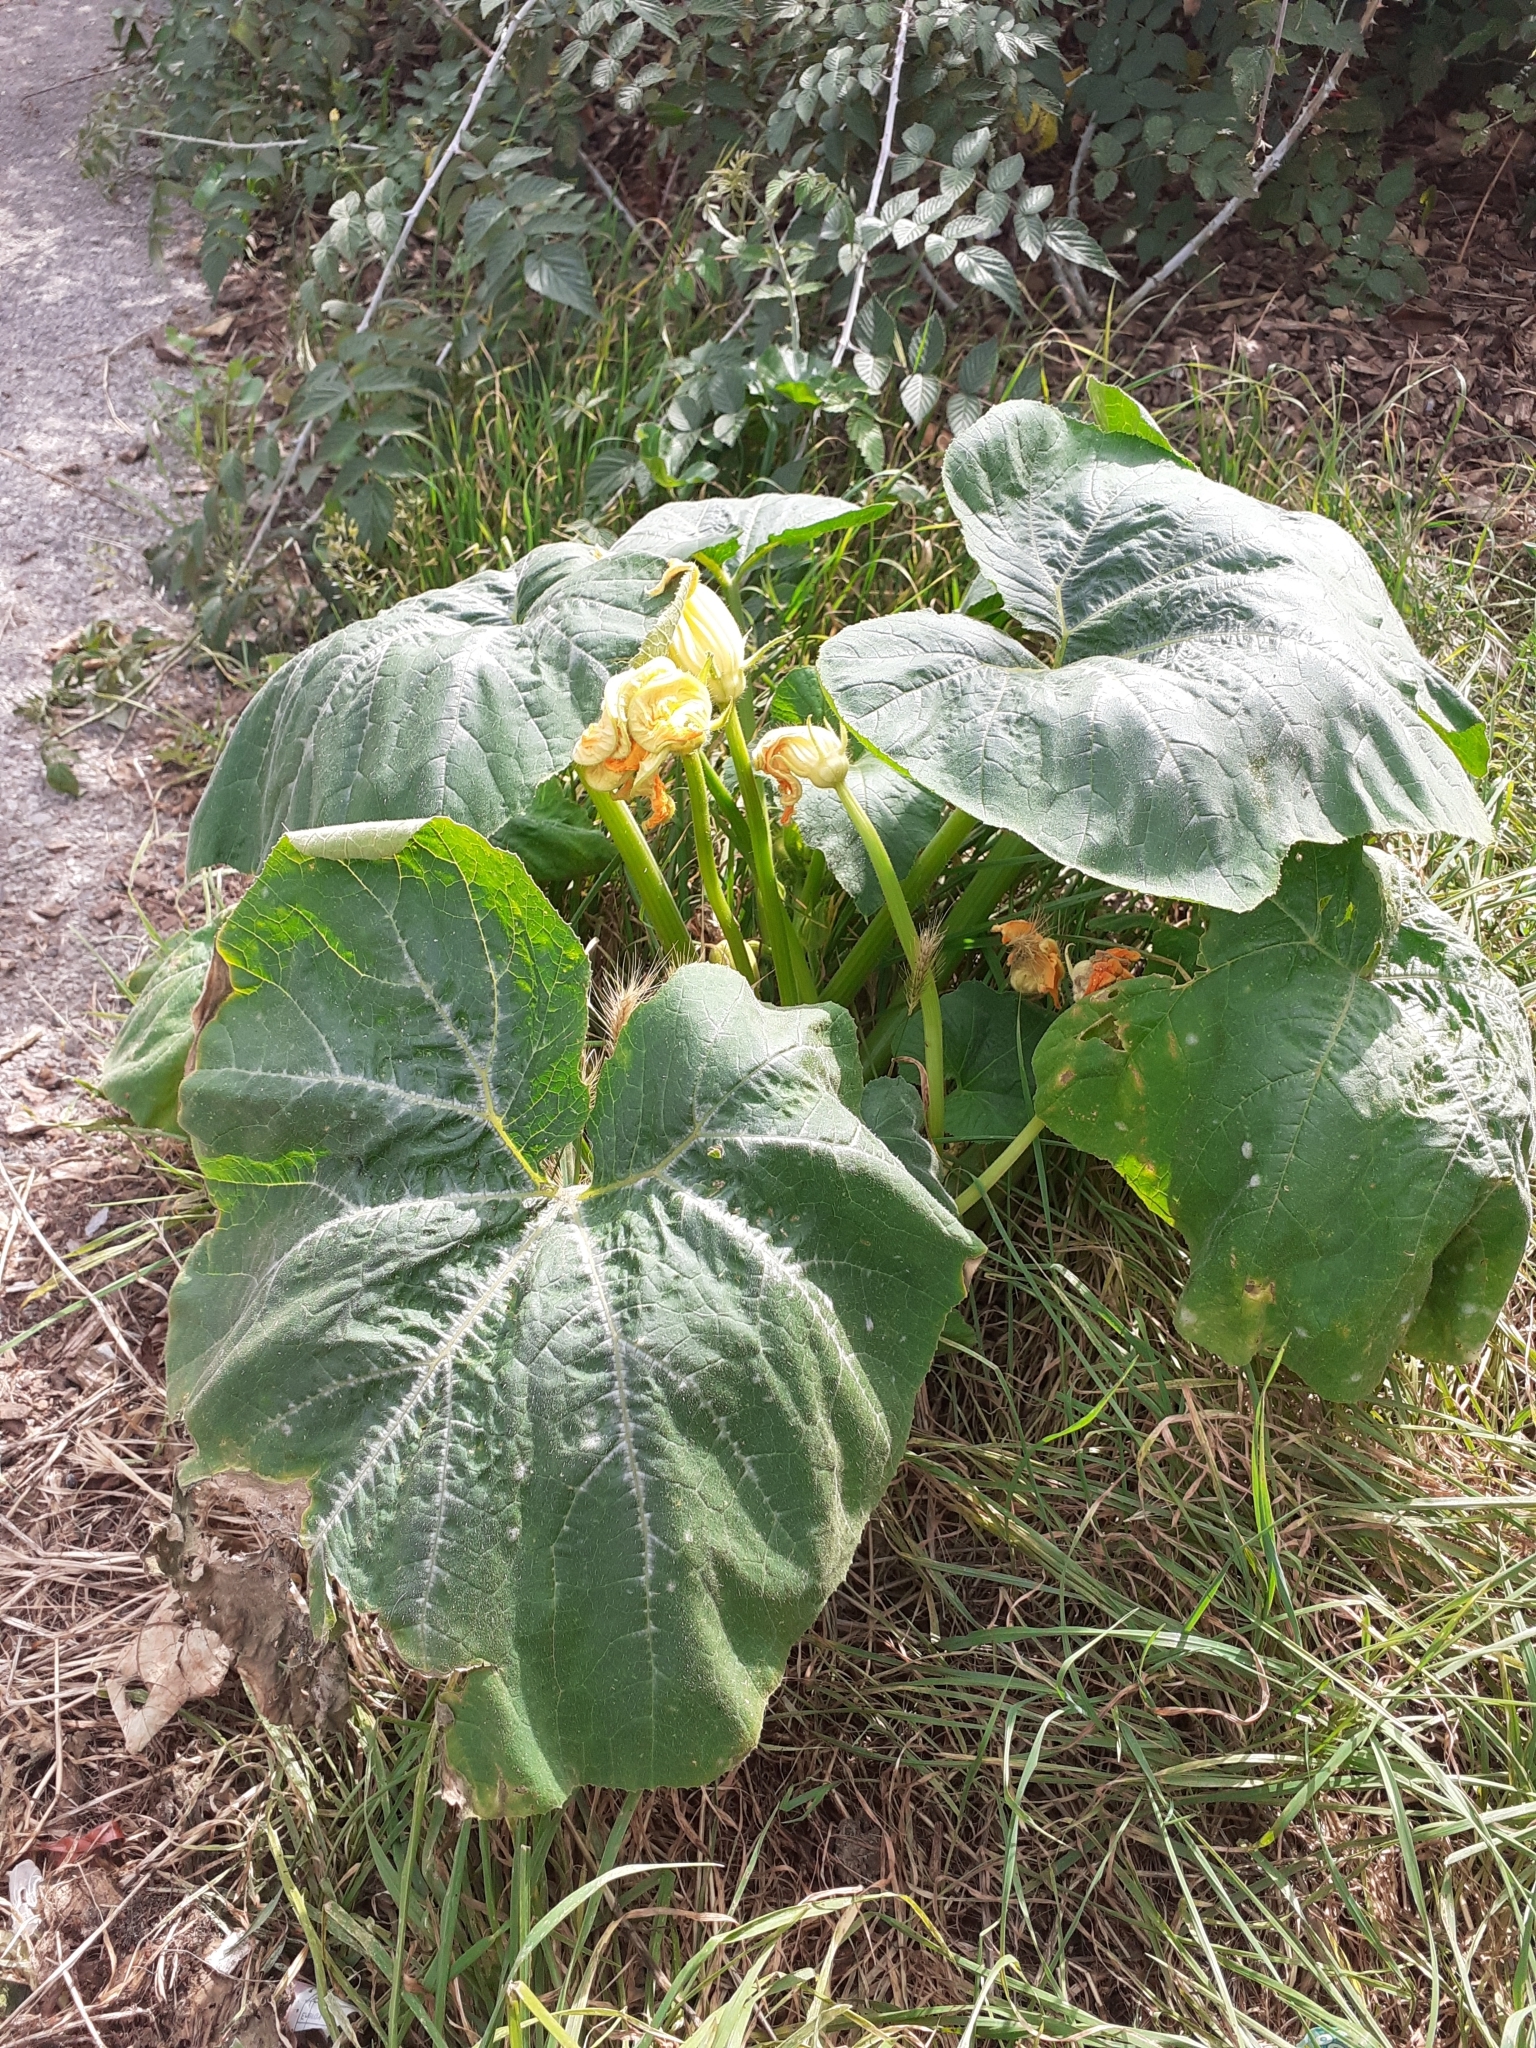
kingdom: Plantae
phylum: Tracheophyta
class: Magnoliopsida
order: Cucurbitales
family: Cucurbitaceae
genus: Cucurbita
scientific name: Cucurbita pepo
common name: Marrow
